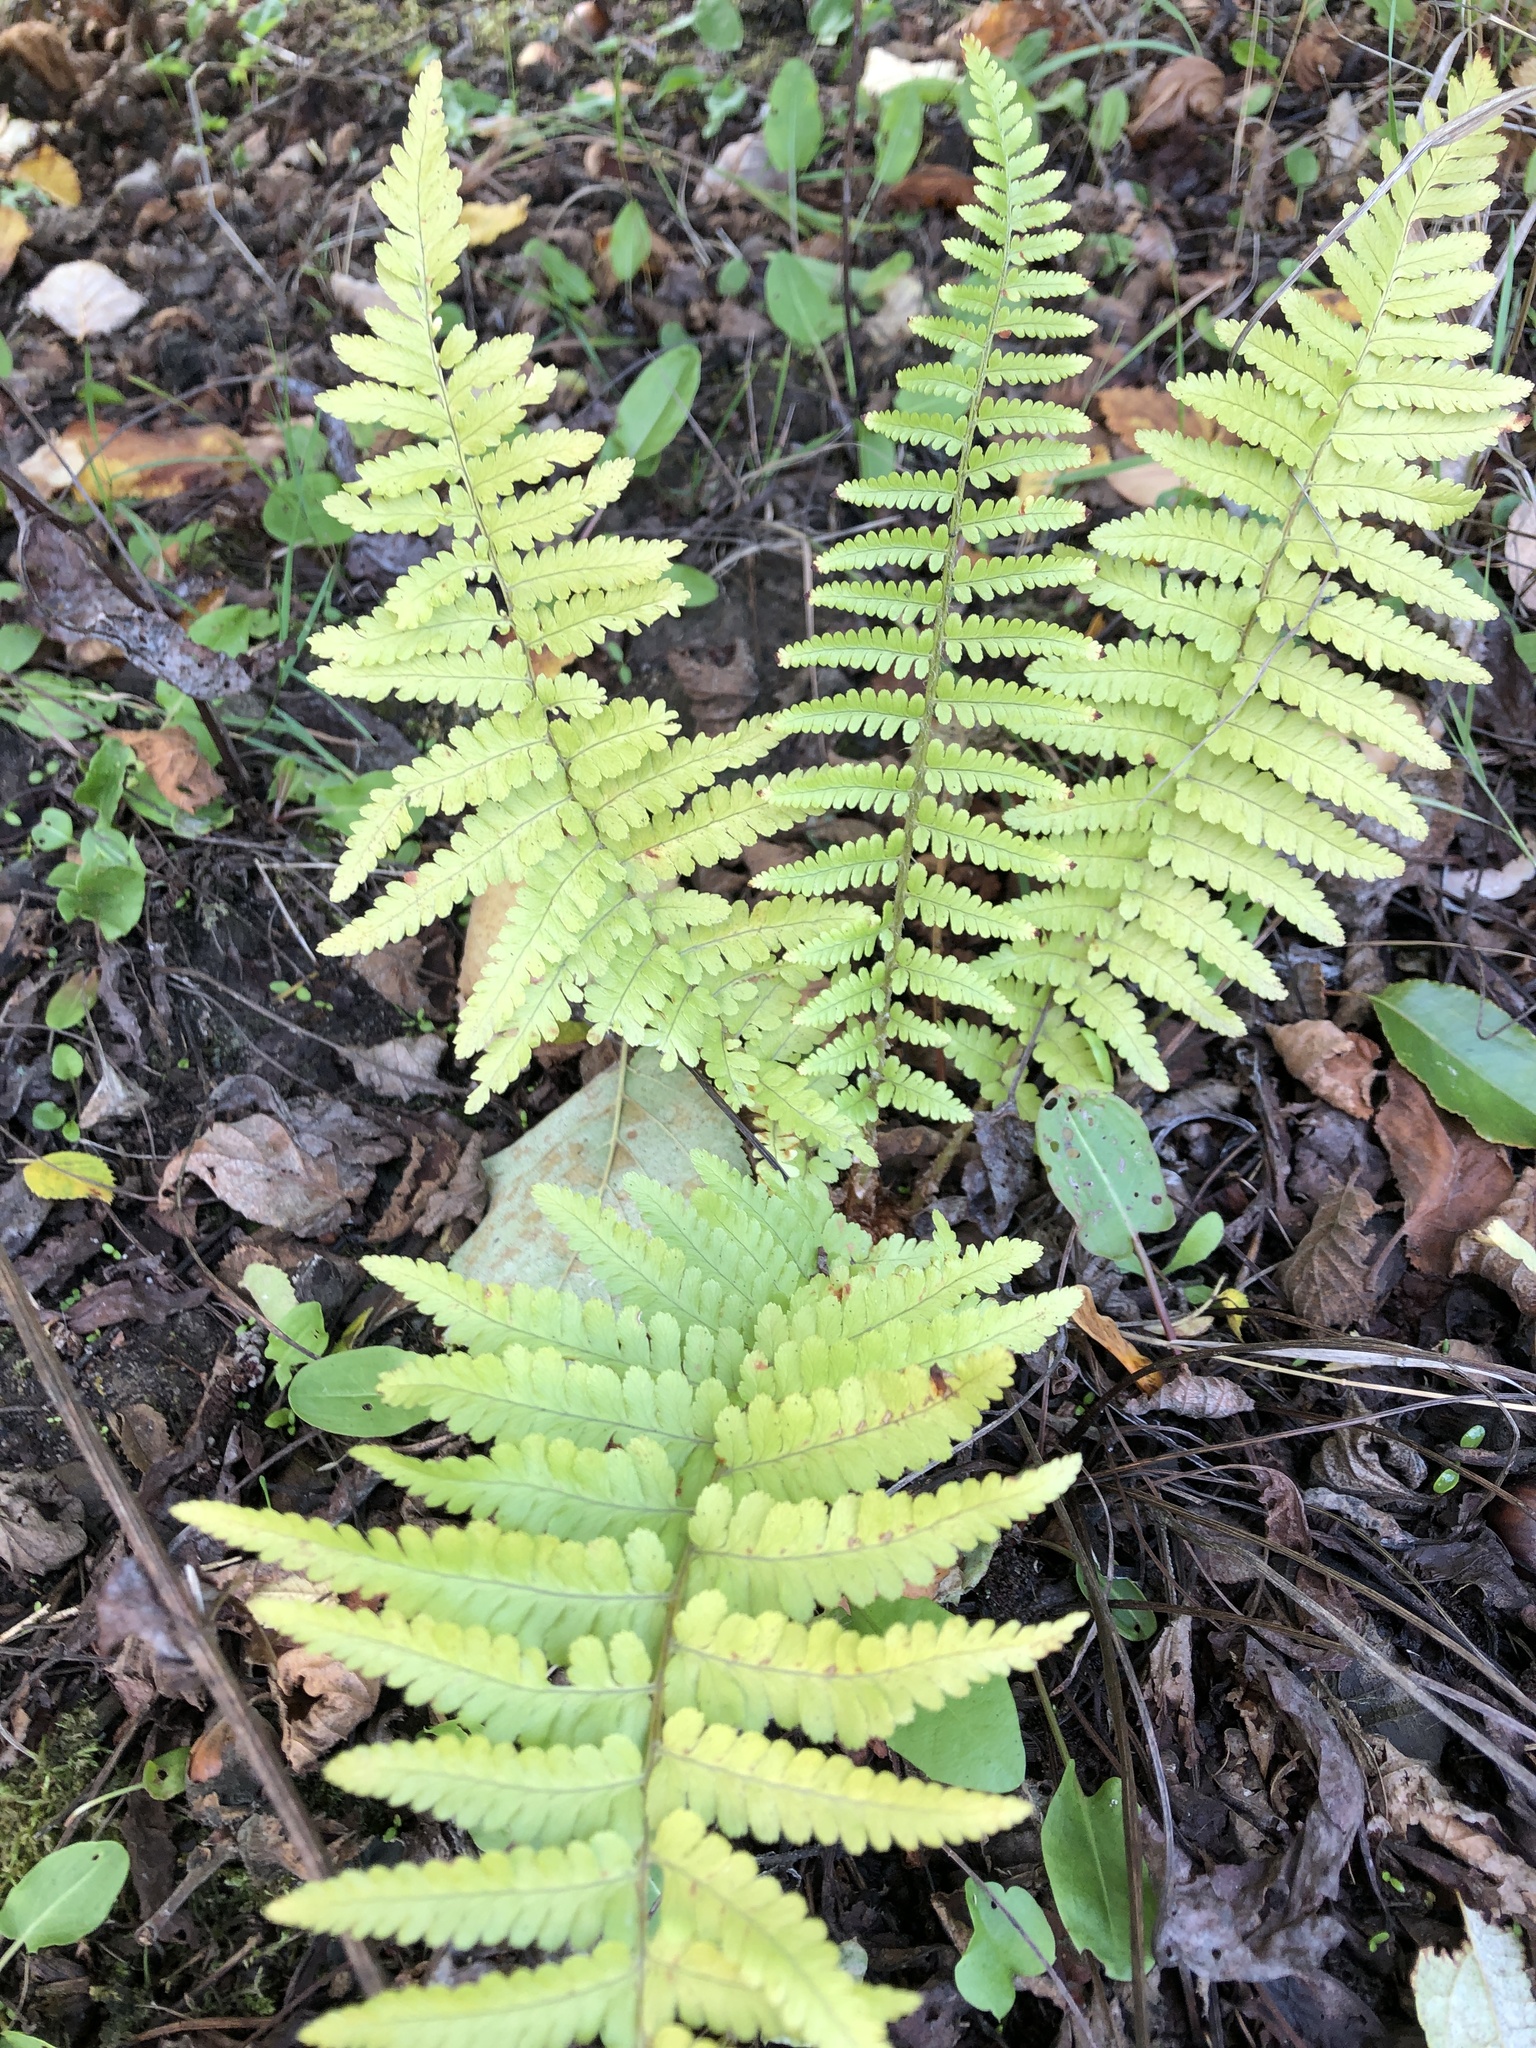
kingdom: Plantae
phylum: Tracheophyta
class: Polypodiopsida
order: Polypodiales
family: Dryopteridaceae
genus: Dryopteris
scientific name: Dryopteris filix-mas
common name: Male fern
